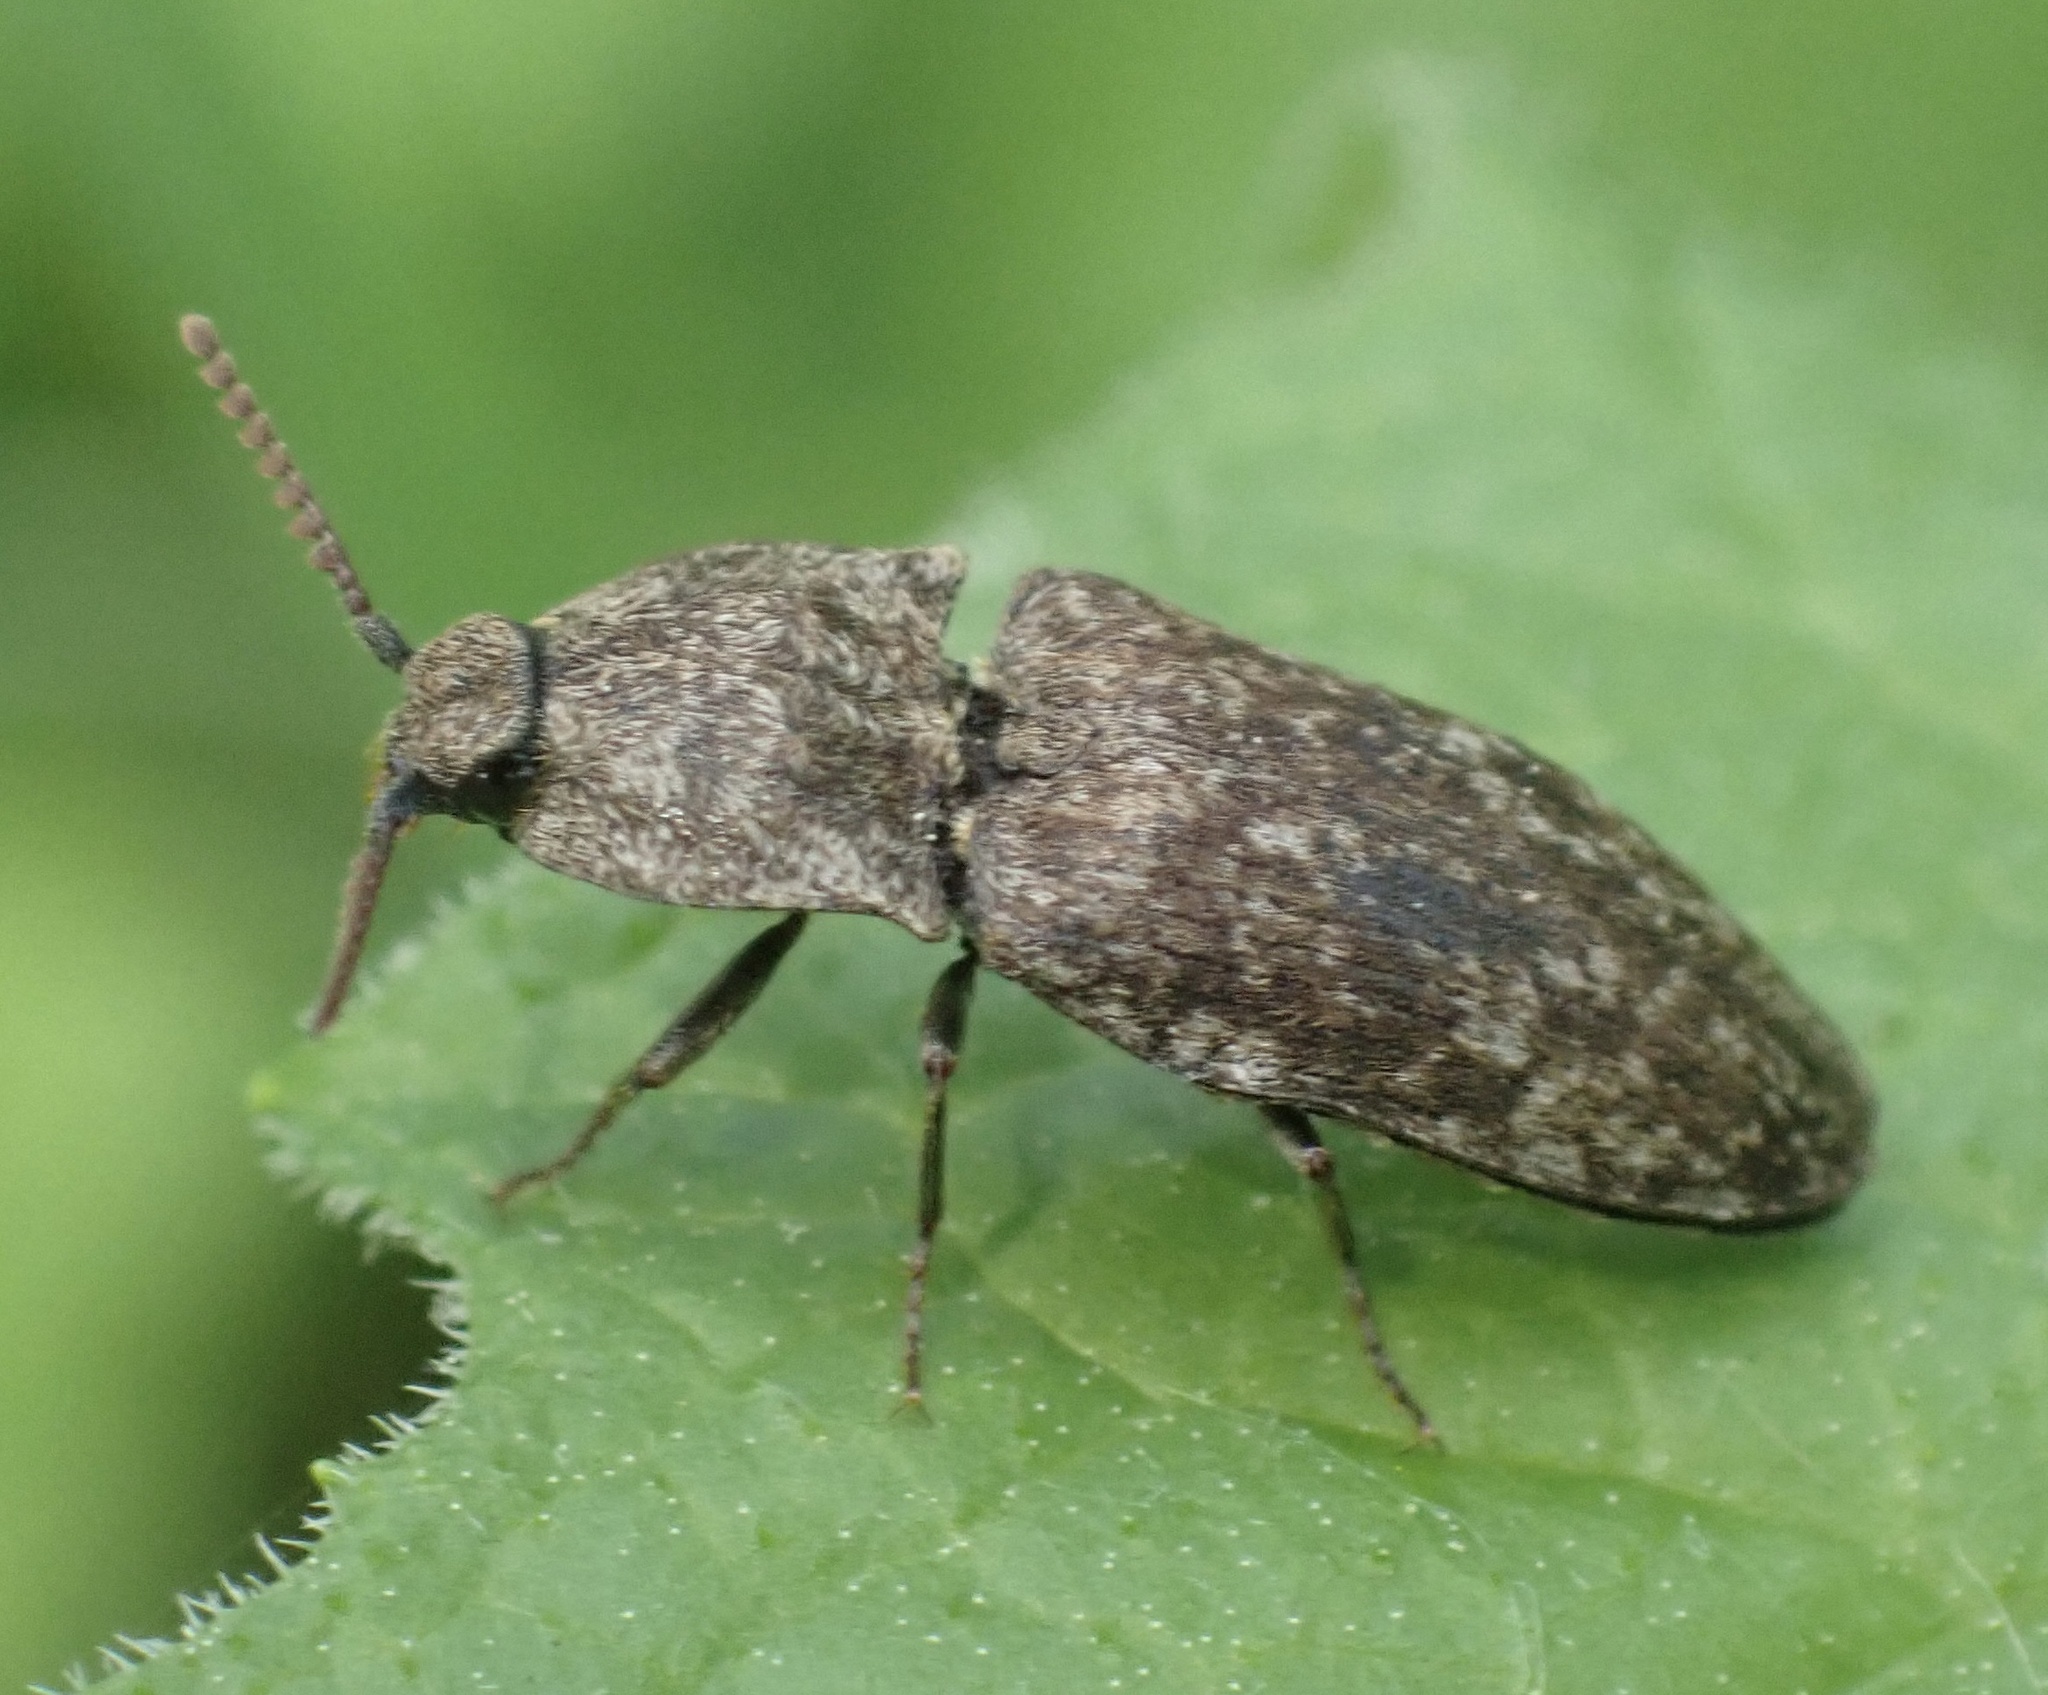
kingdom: Animalia
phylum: Arthropoda
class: Insecta
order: Coleoptera
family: Elateridae
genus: Agrypnus
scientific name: Agrypnus murinus
